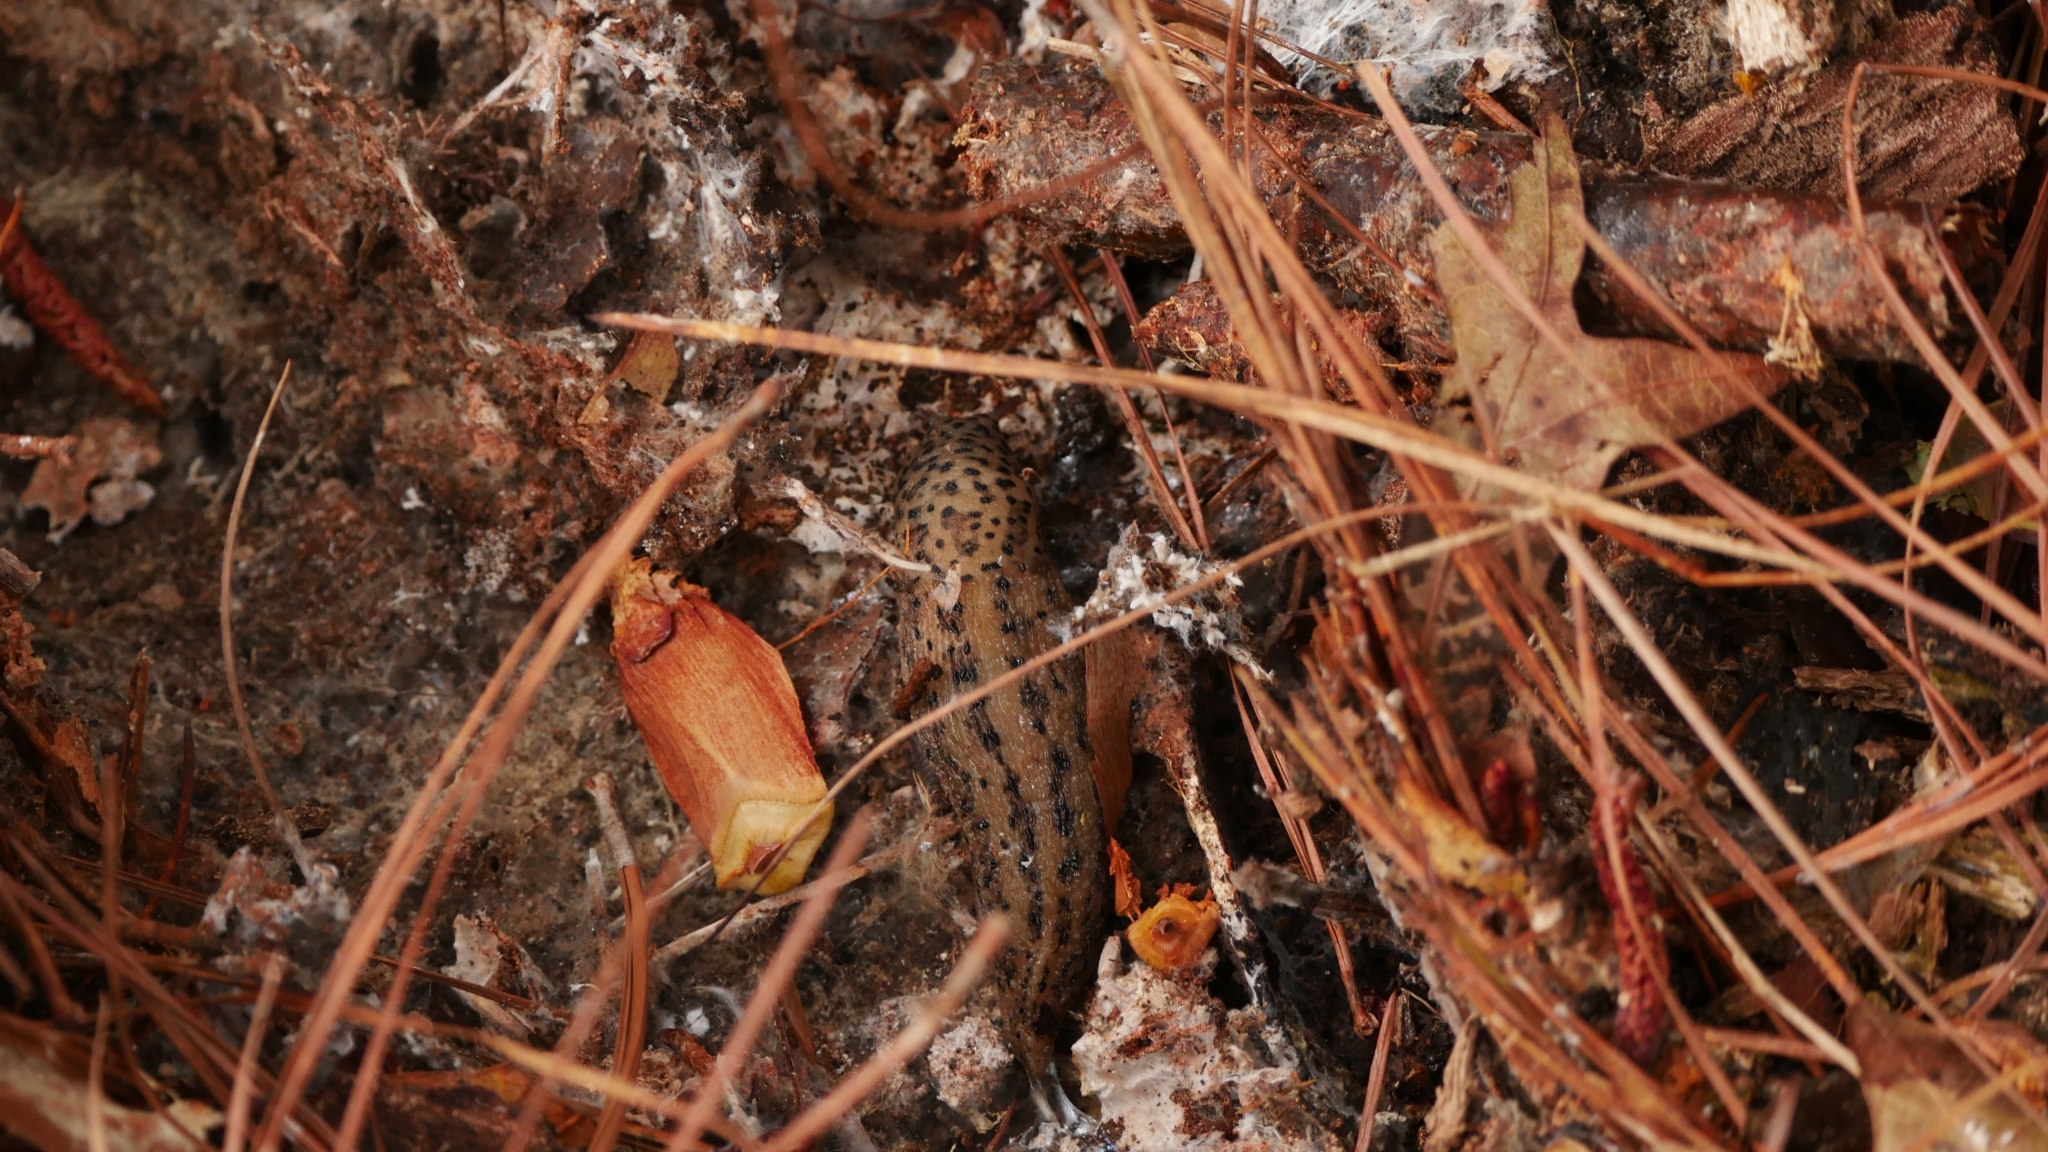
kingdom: Animalia
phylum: Mollusca
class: Gastropoda
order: Stylommatophora
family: Limacidae
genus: Limax
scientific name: Limax maximus
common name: Great grey slug
